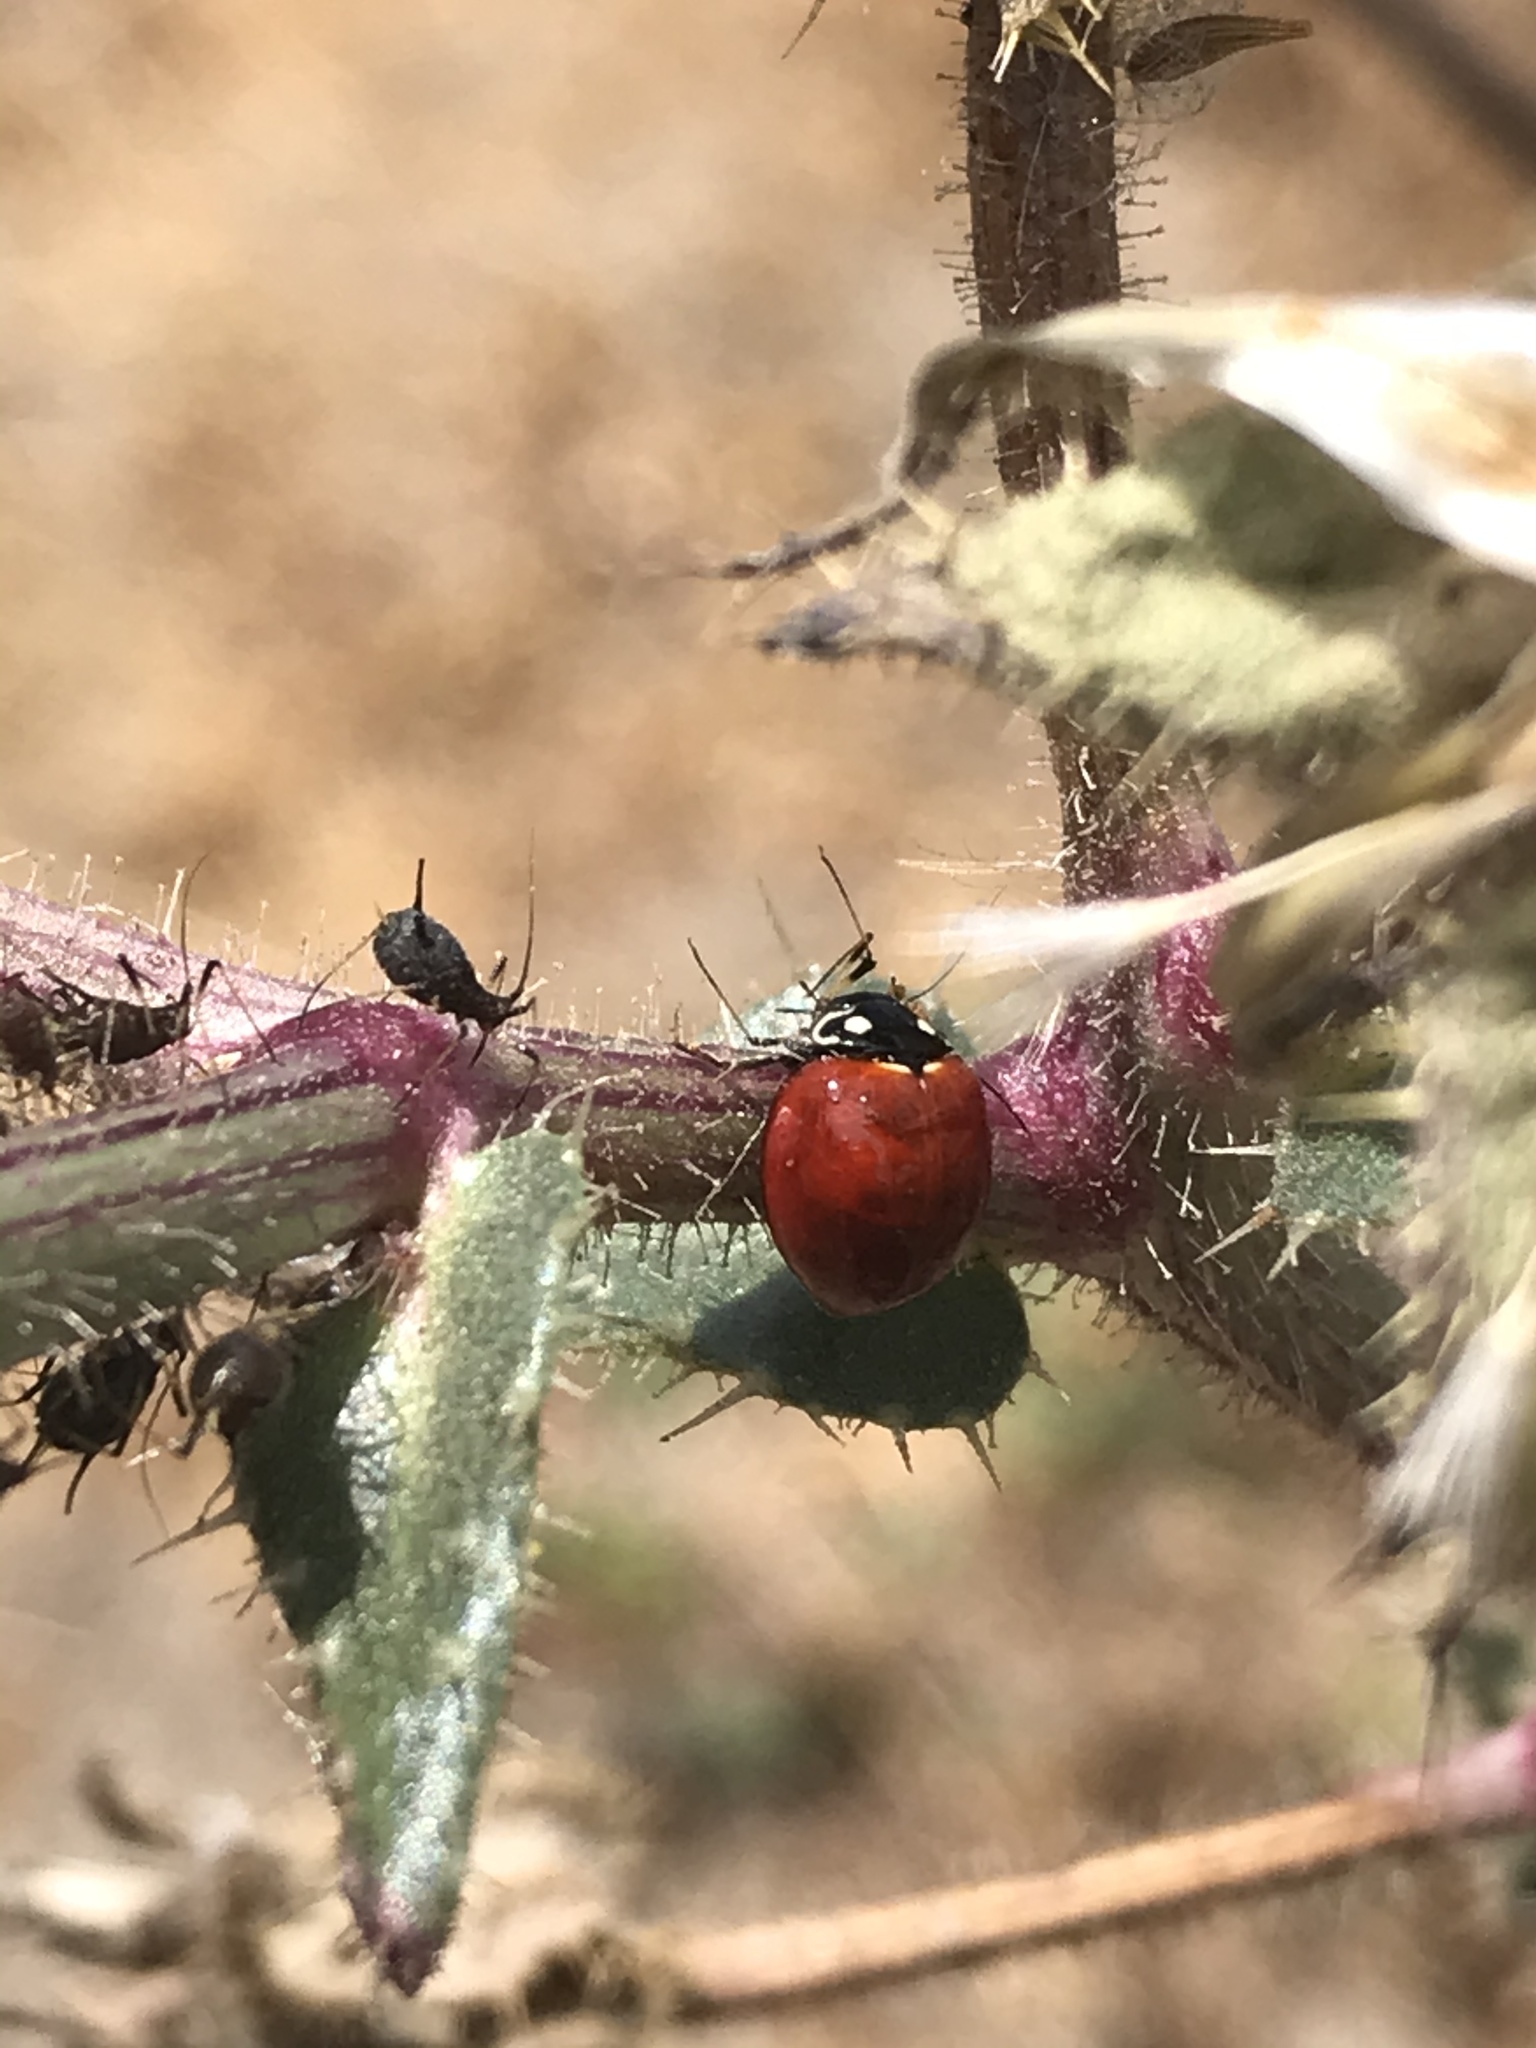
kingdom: Animalia
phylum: Arthropoda
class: Insecta
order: Coleoptera
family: Coccinellidae
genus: Cycloneda
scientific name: Cycloneda sanguinea
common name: Ladybird beetle
